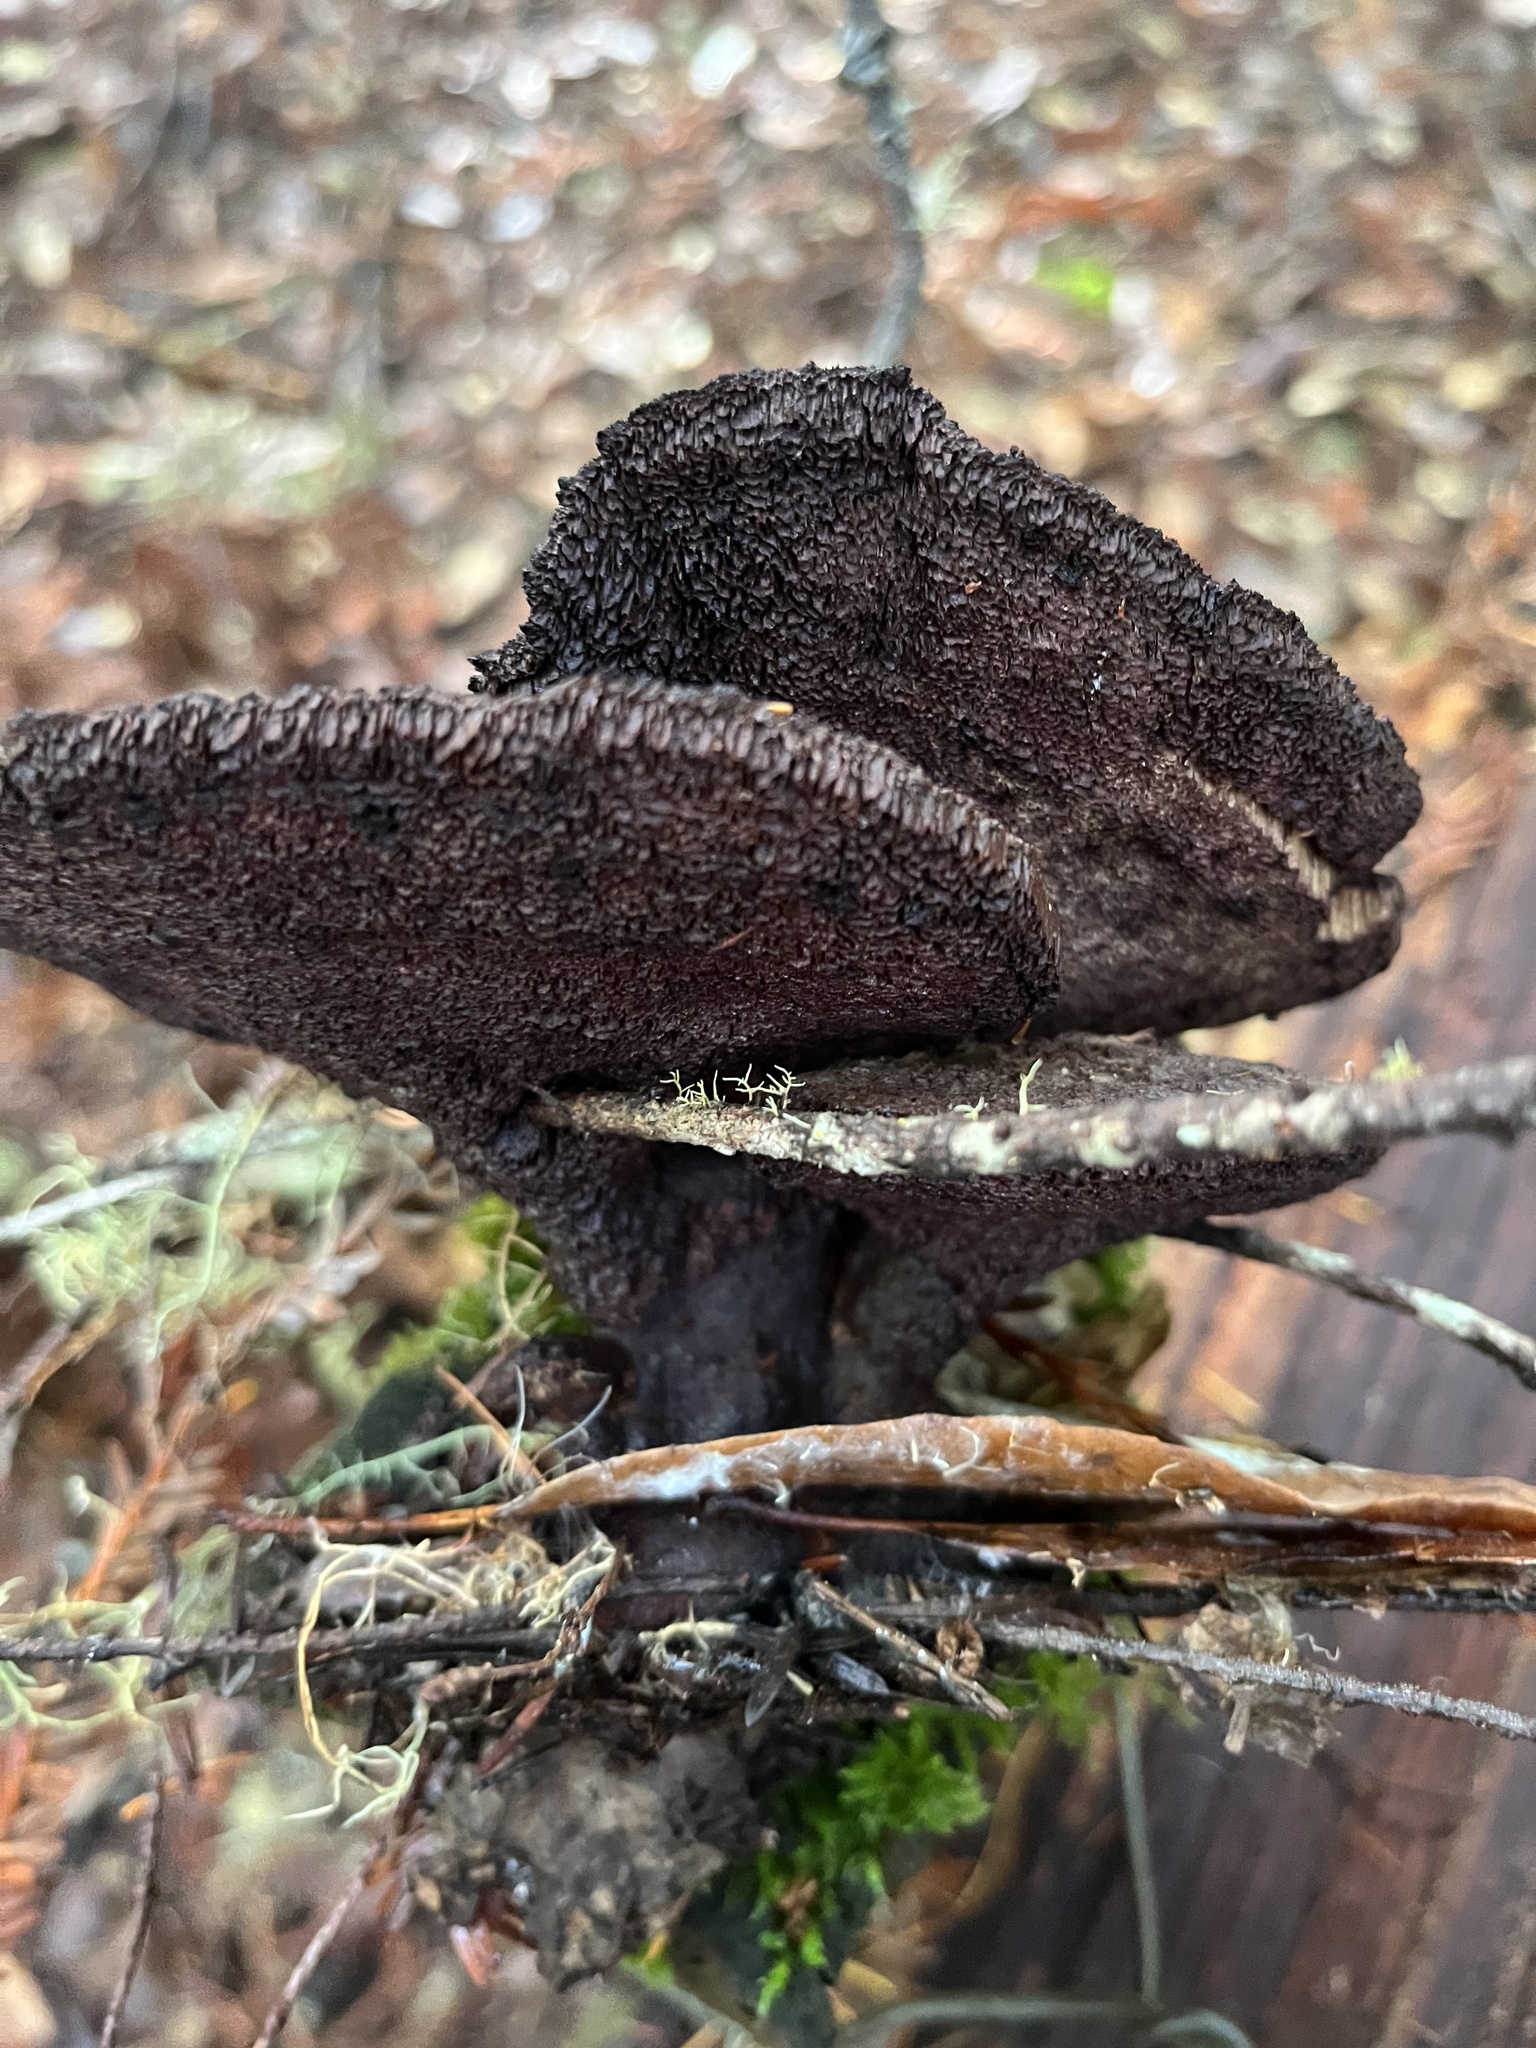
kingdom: Fungi
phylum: Basidiomycota
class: Agaricomycetes
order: Polyporales
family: Laetiporaceae
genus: Phaeolus
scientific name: Phaeolus schweinitzii
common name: Dyer's mazegill
